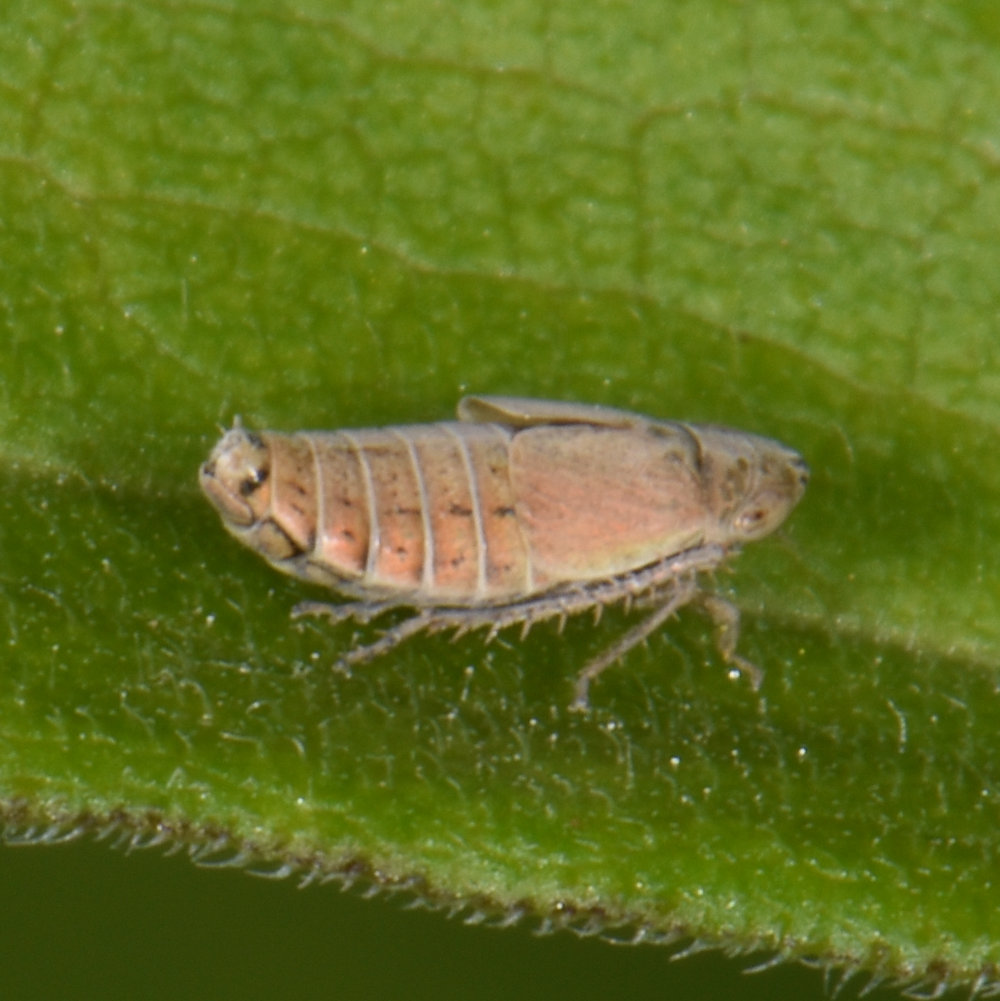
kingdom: Animalia
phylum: Arthropoda
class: Insecta
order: Hemiptera
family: Cicadellidae
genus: Doratura
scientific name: Doratura stylata
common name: Leafhopper
